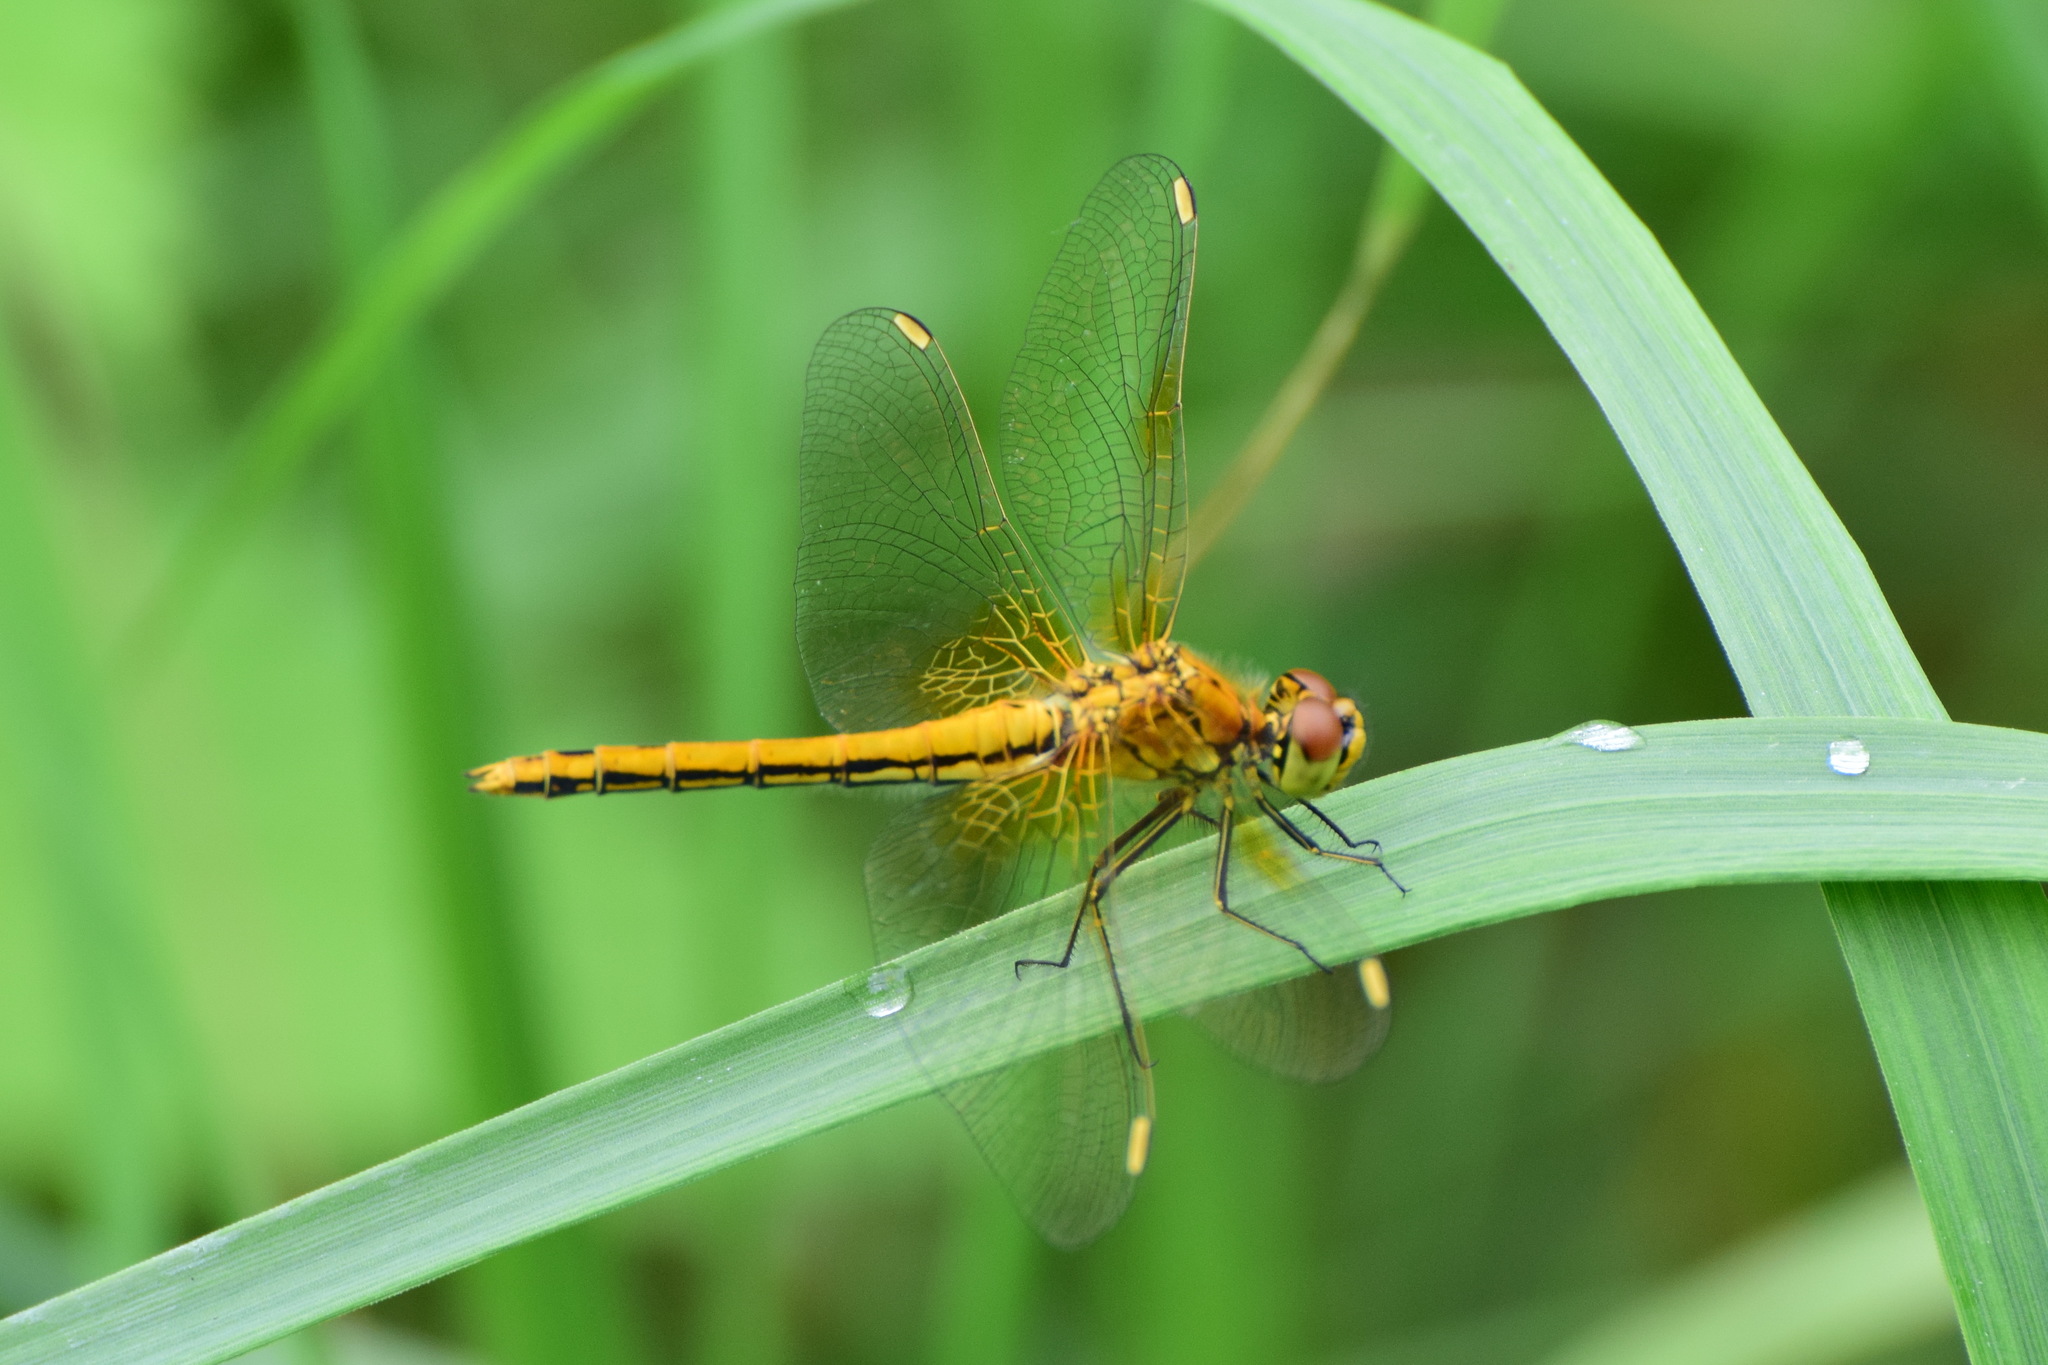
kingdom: Animalia
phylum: Arthropoda
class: Insecta
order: Odonata
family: Libellulidae
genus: Sympetrum
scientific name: Sympetrum flaveolum
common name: Yellow-winged darter
